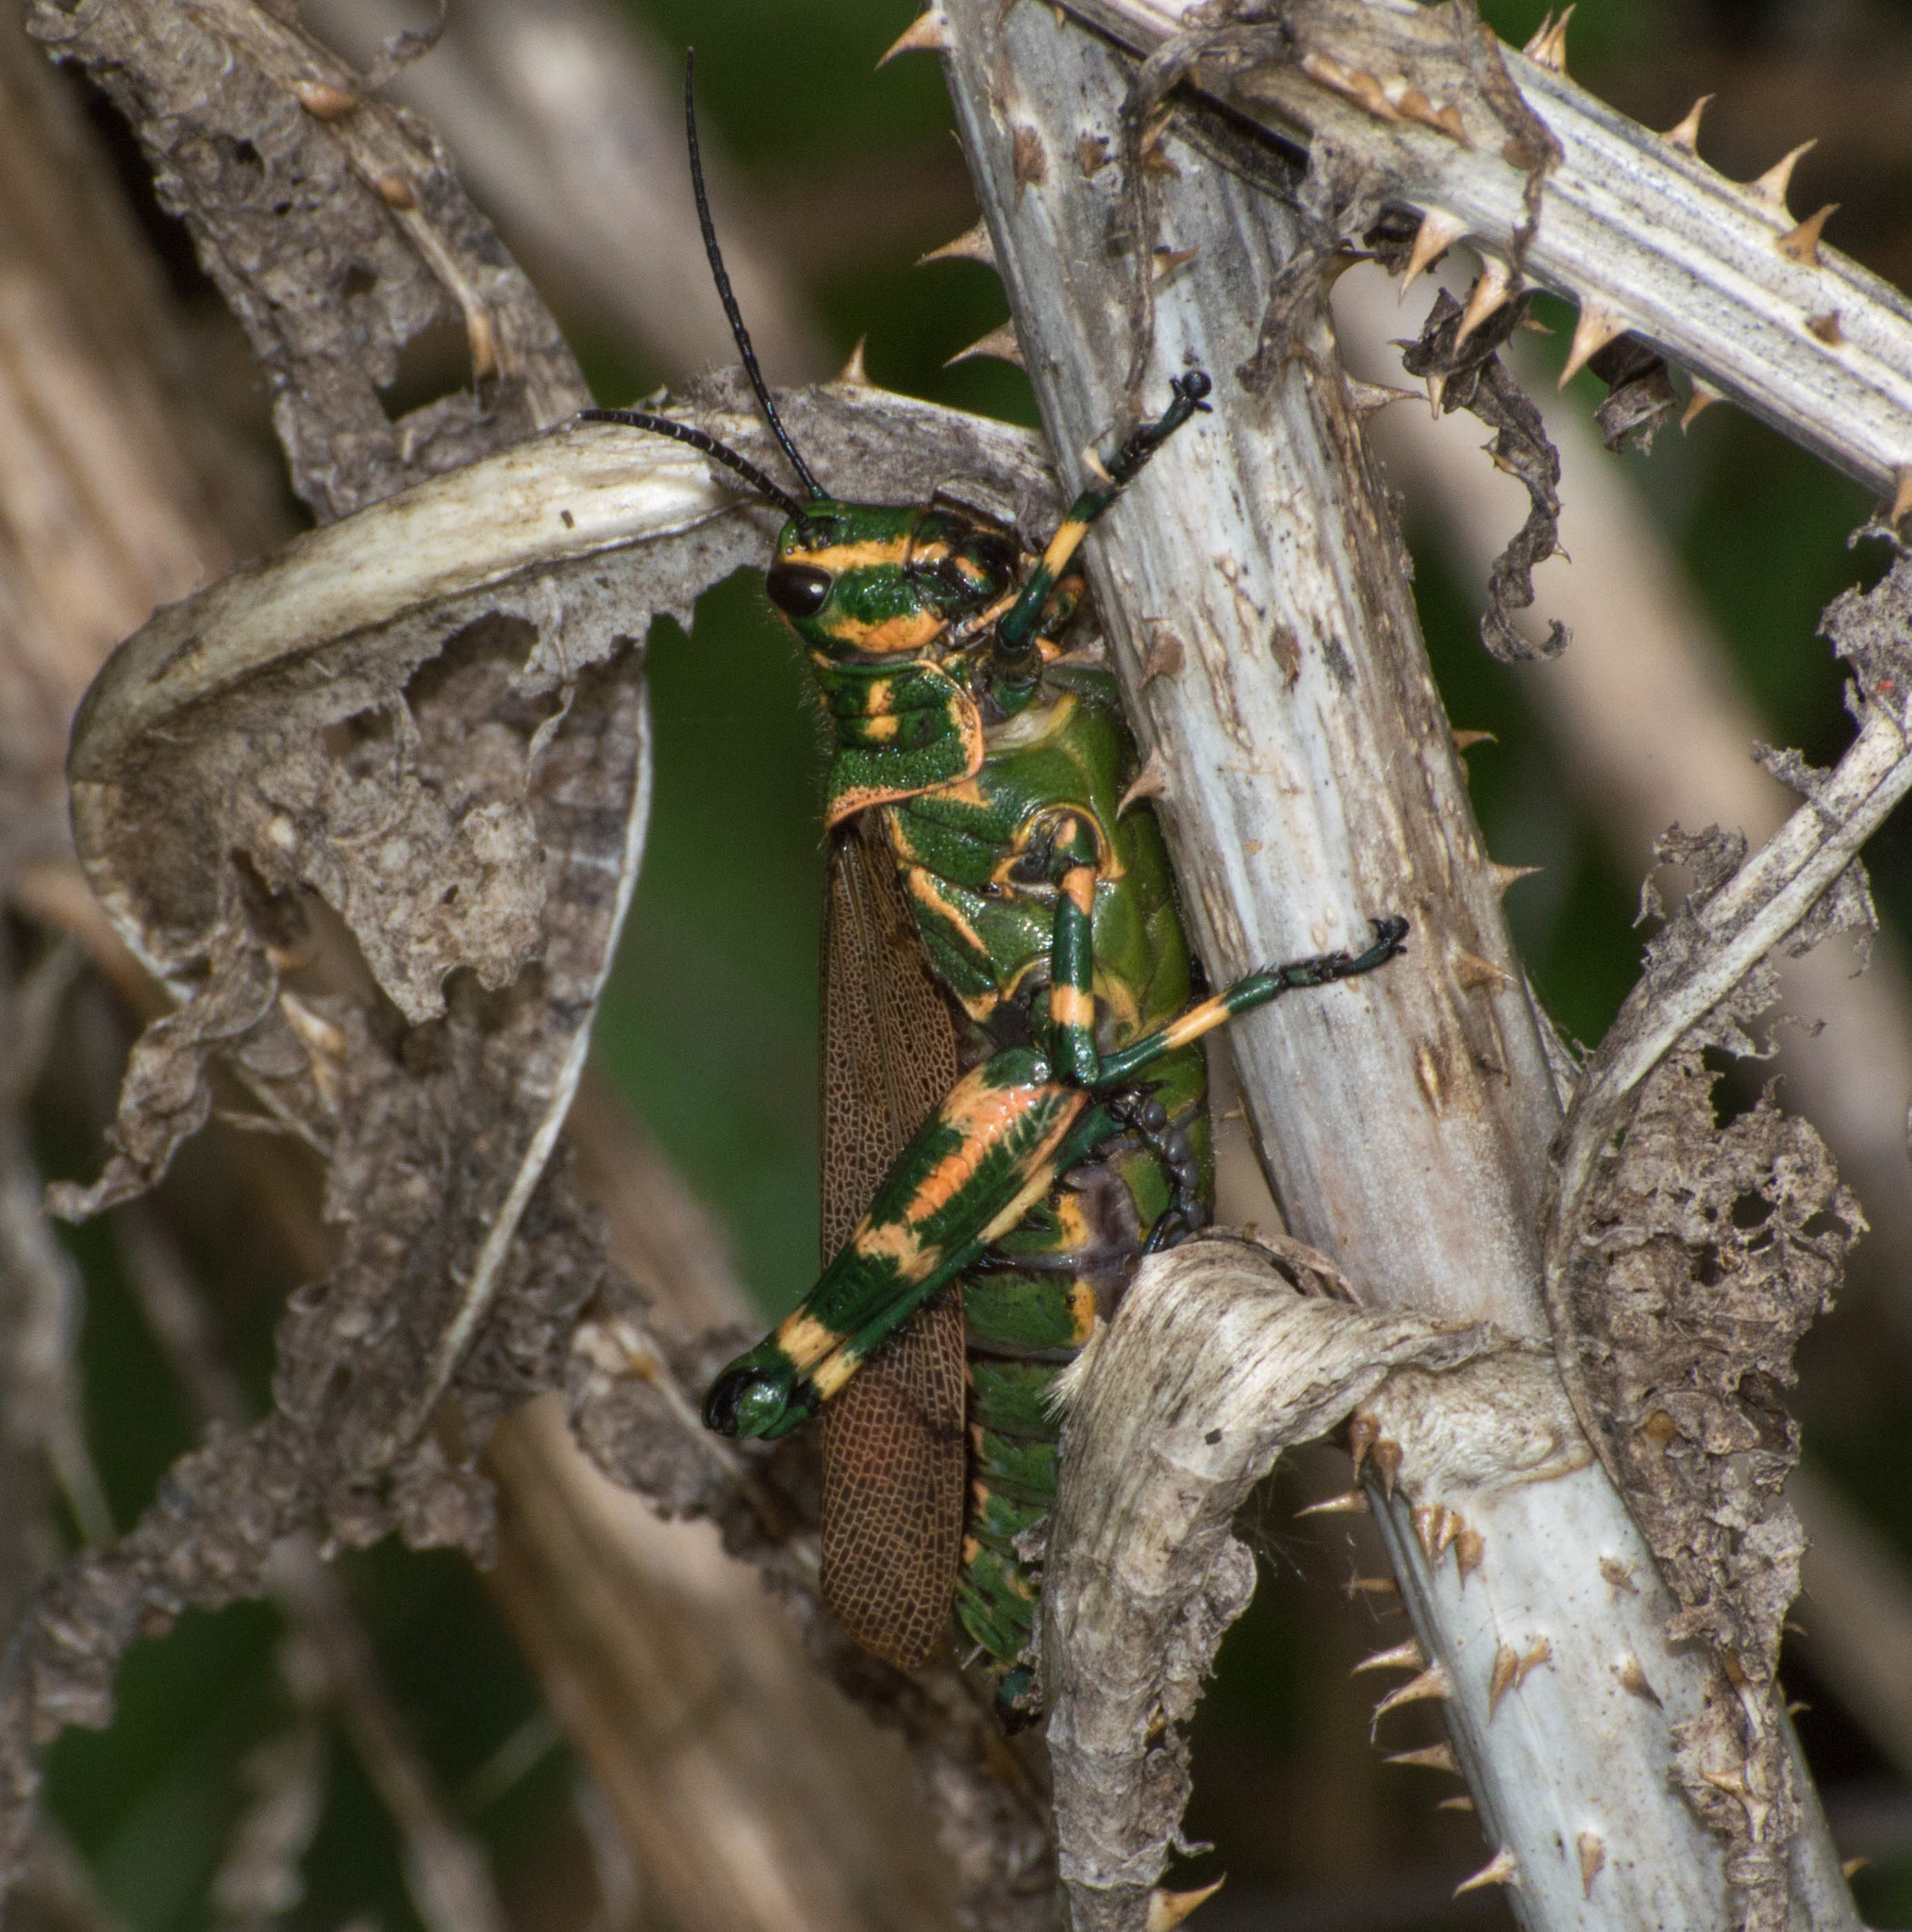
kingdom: Animalia
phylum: Arthropoda
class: Insecta
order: Orthoptera
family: Romaleidae
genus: Chromacris
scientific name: Chromacris speciosa
